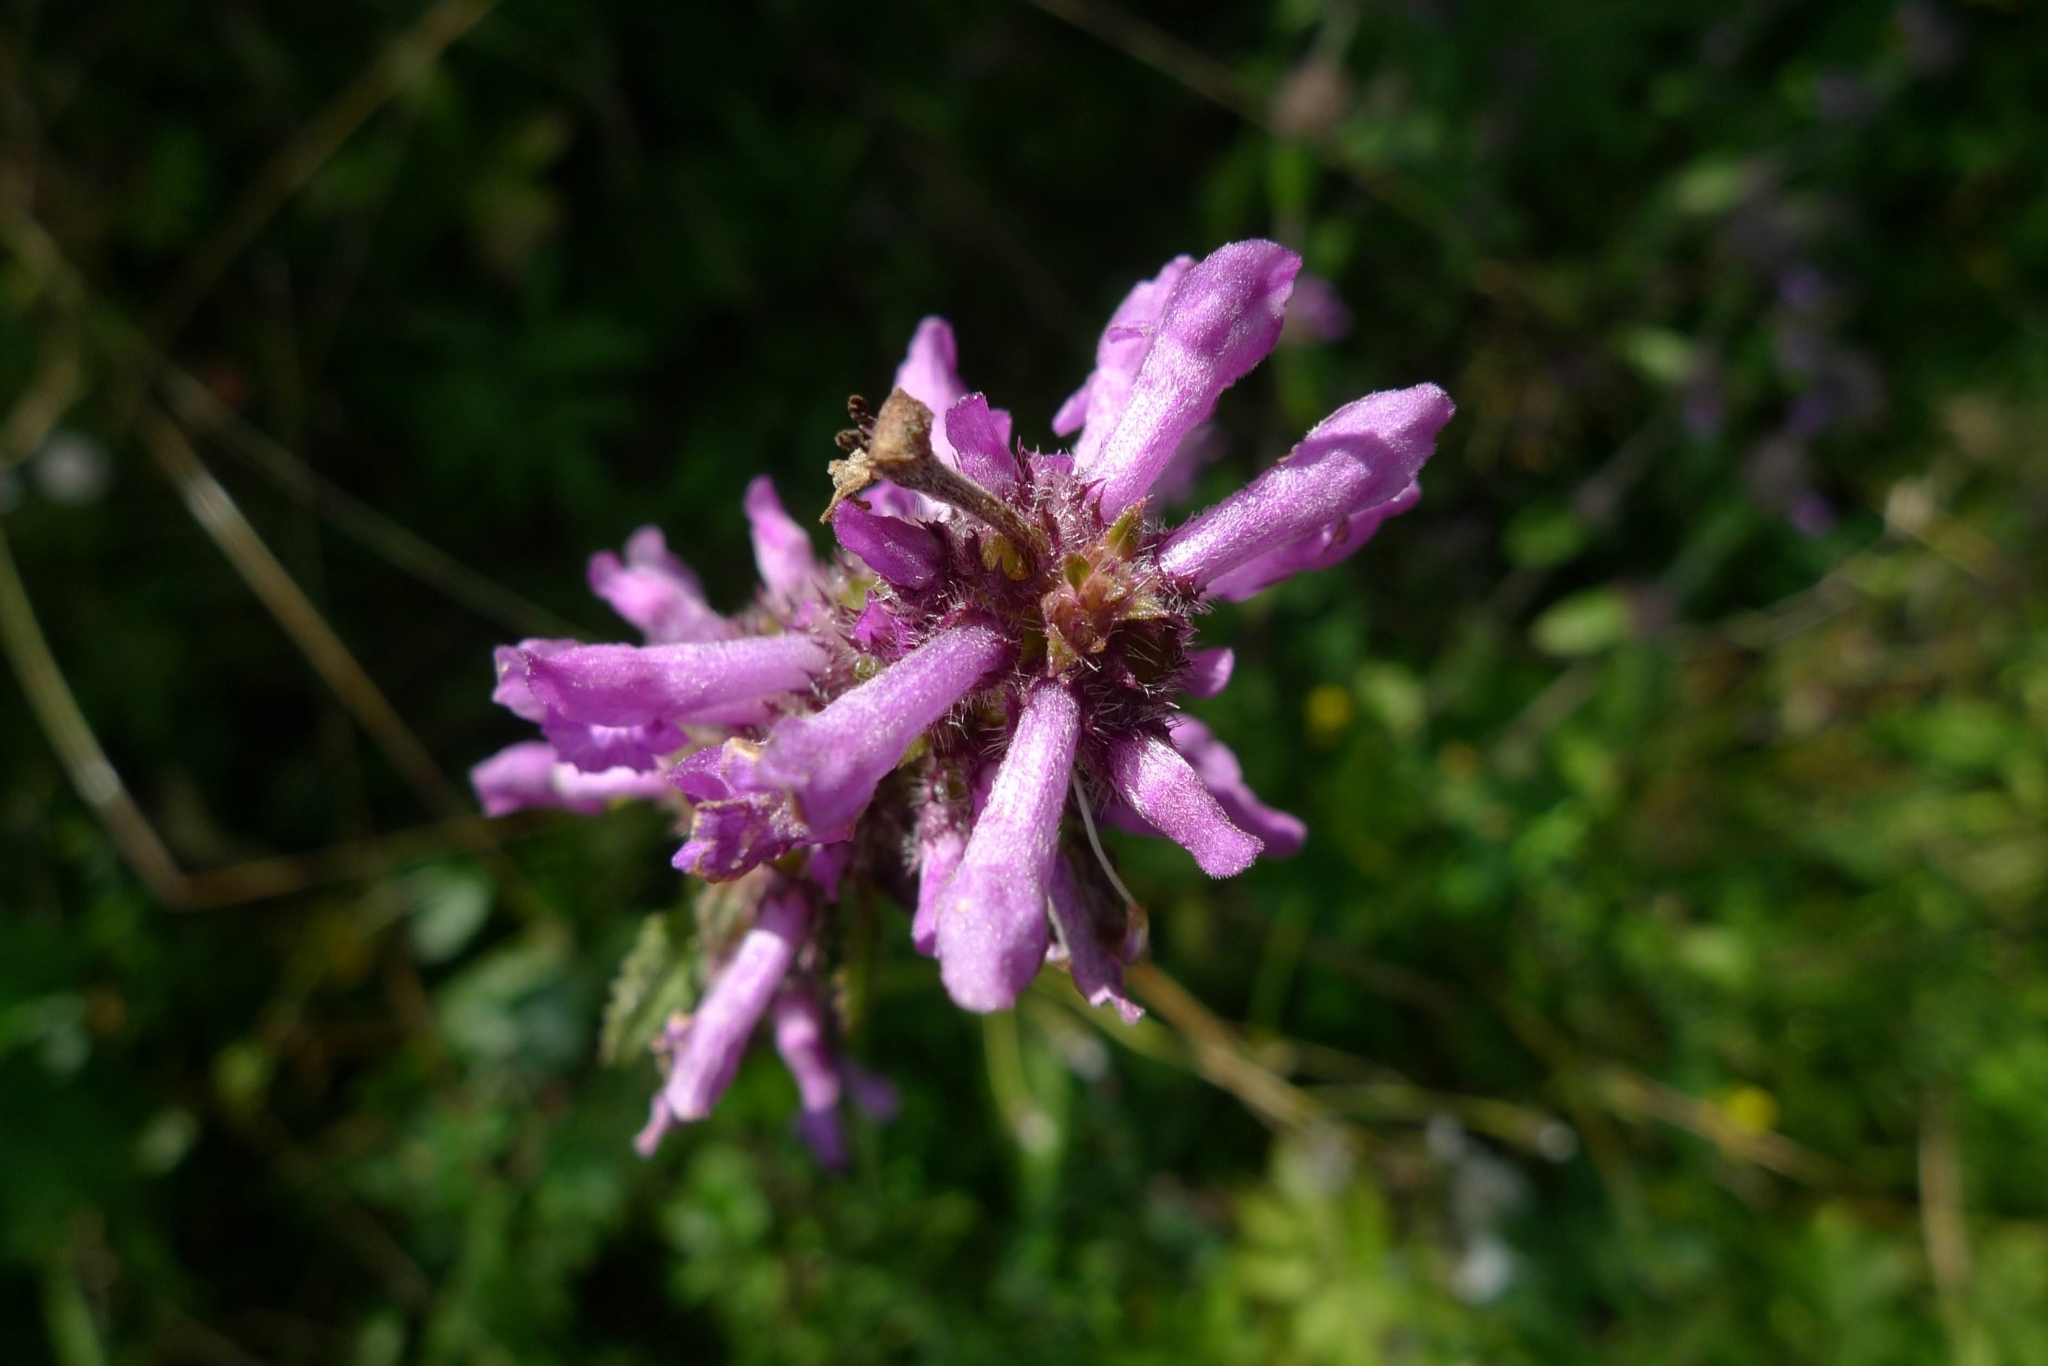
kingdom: Plantae
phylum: Tracheophyta
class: Magnoliopsida
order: Lamiales
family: Lamiaceae
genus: Betonica
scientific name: Betonica officinalis
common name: Bishop's-wort
